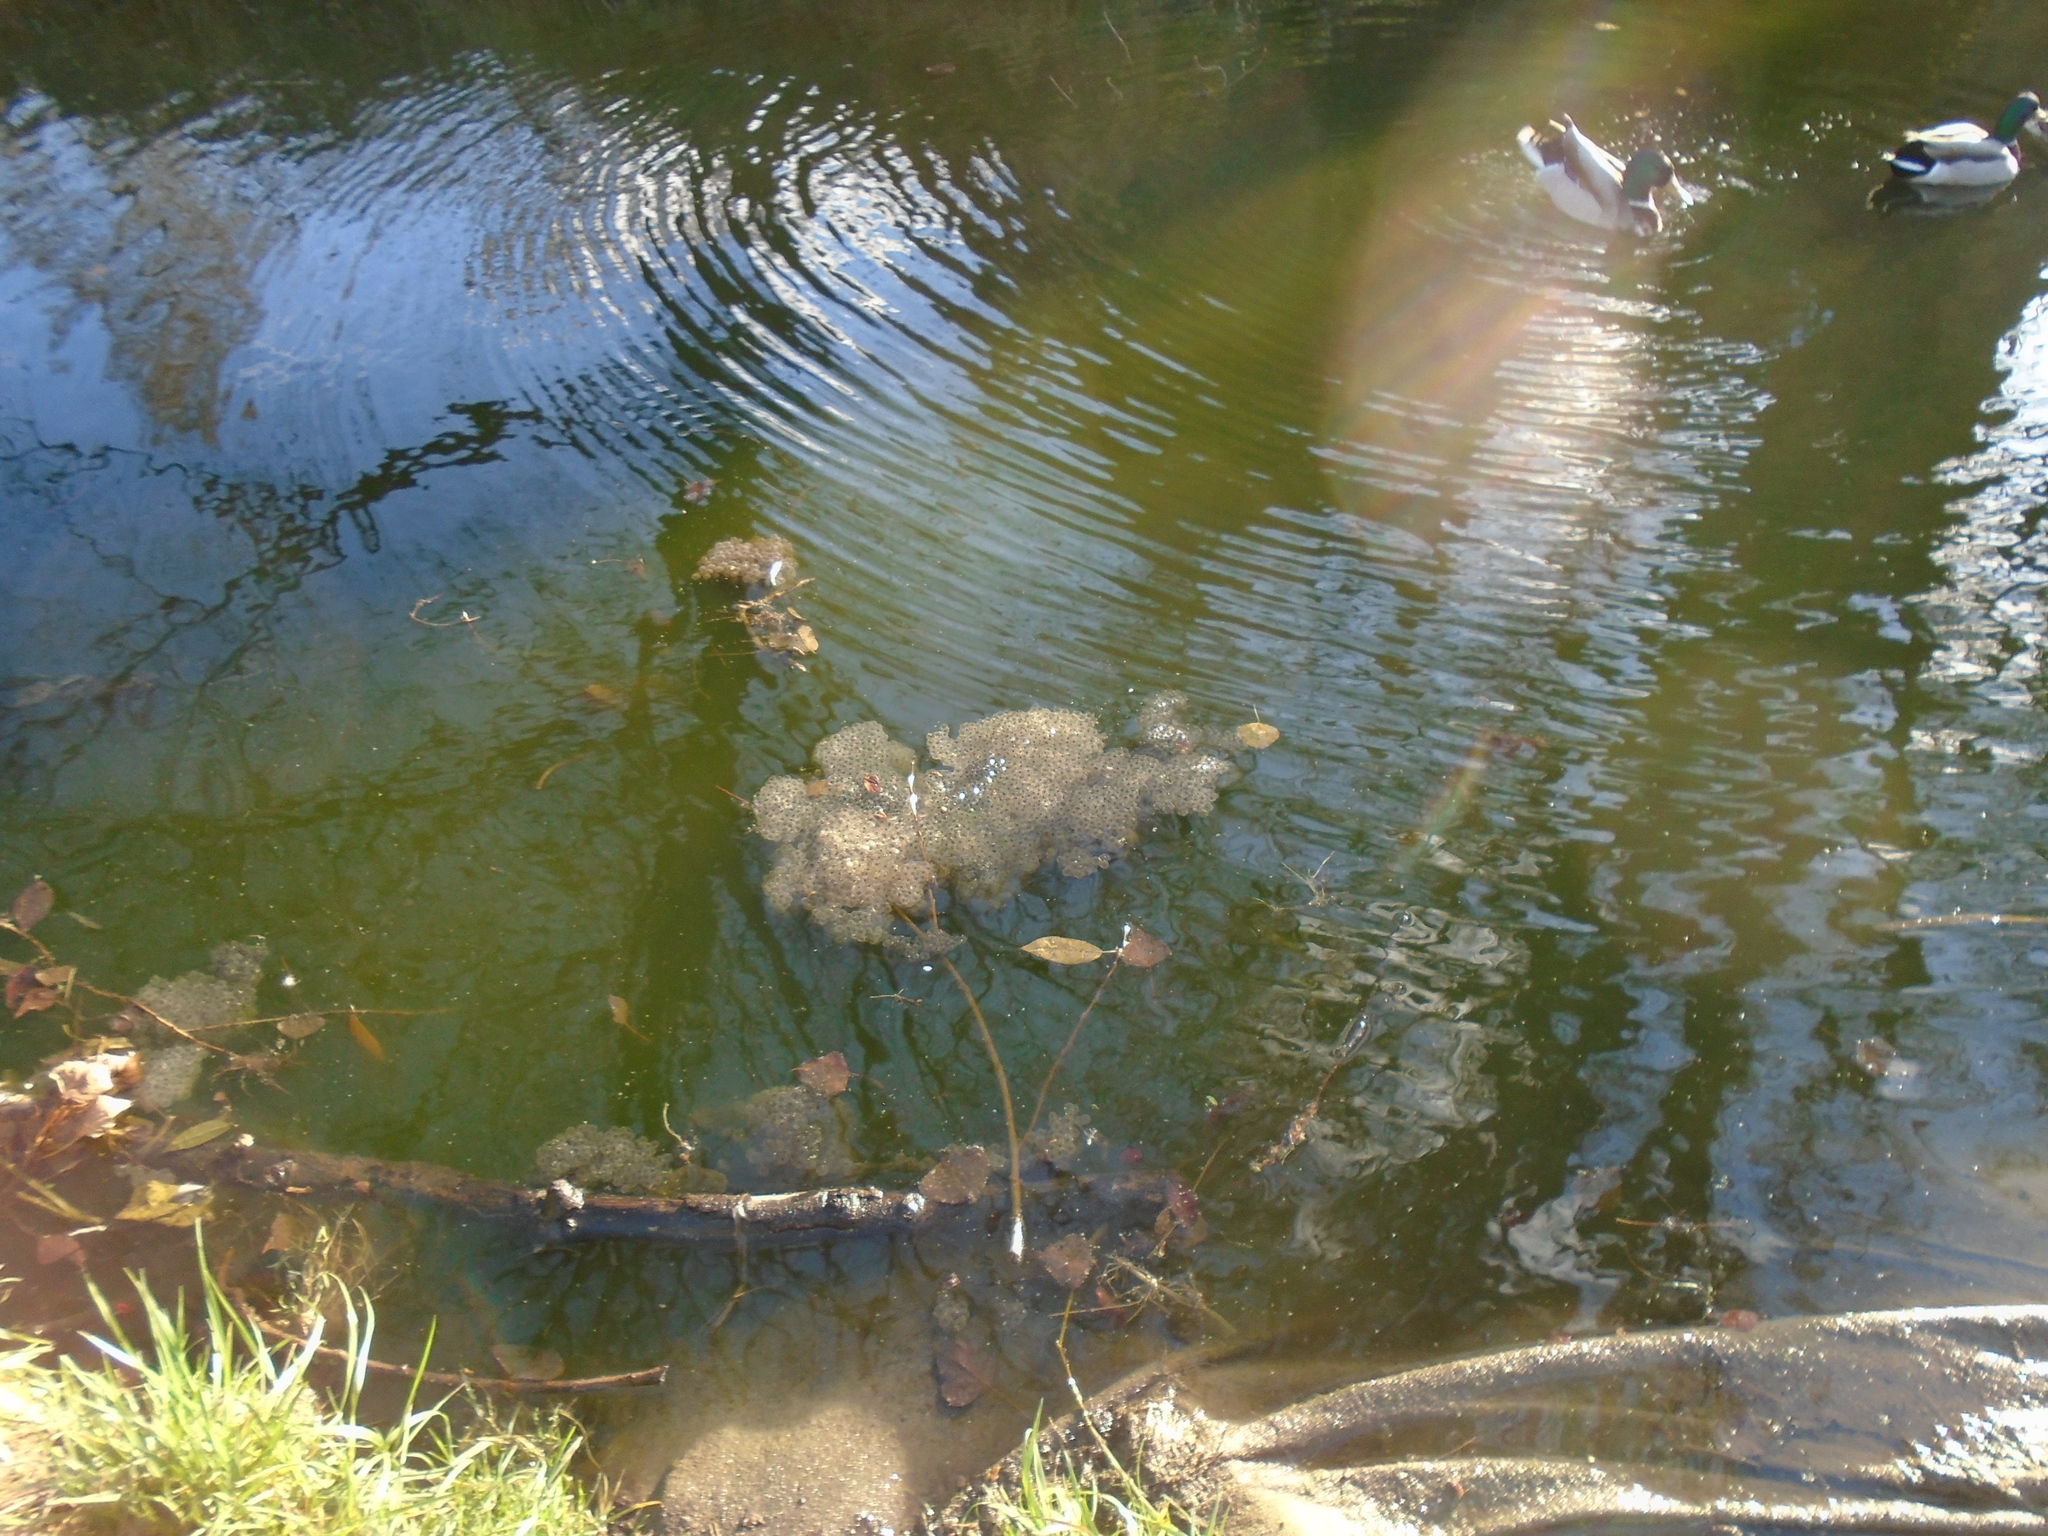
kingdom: Animalia
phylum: Chordata
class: Amphibia
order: Anura
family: Ranidae
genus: Rana
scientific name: Rana temporaria
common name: Common frog
